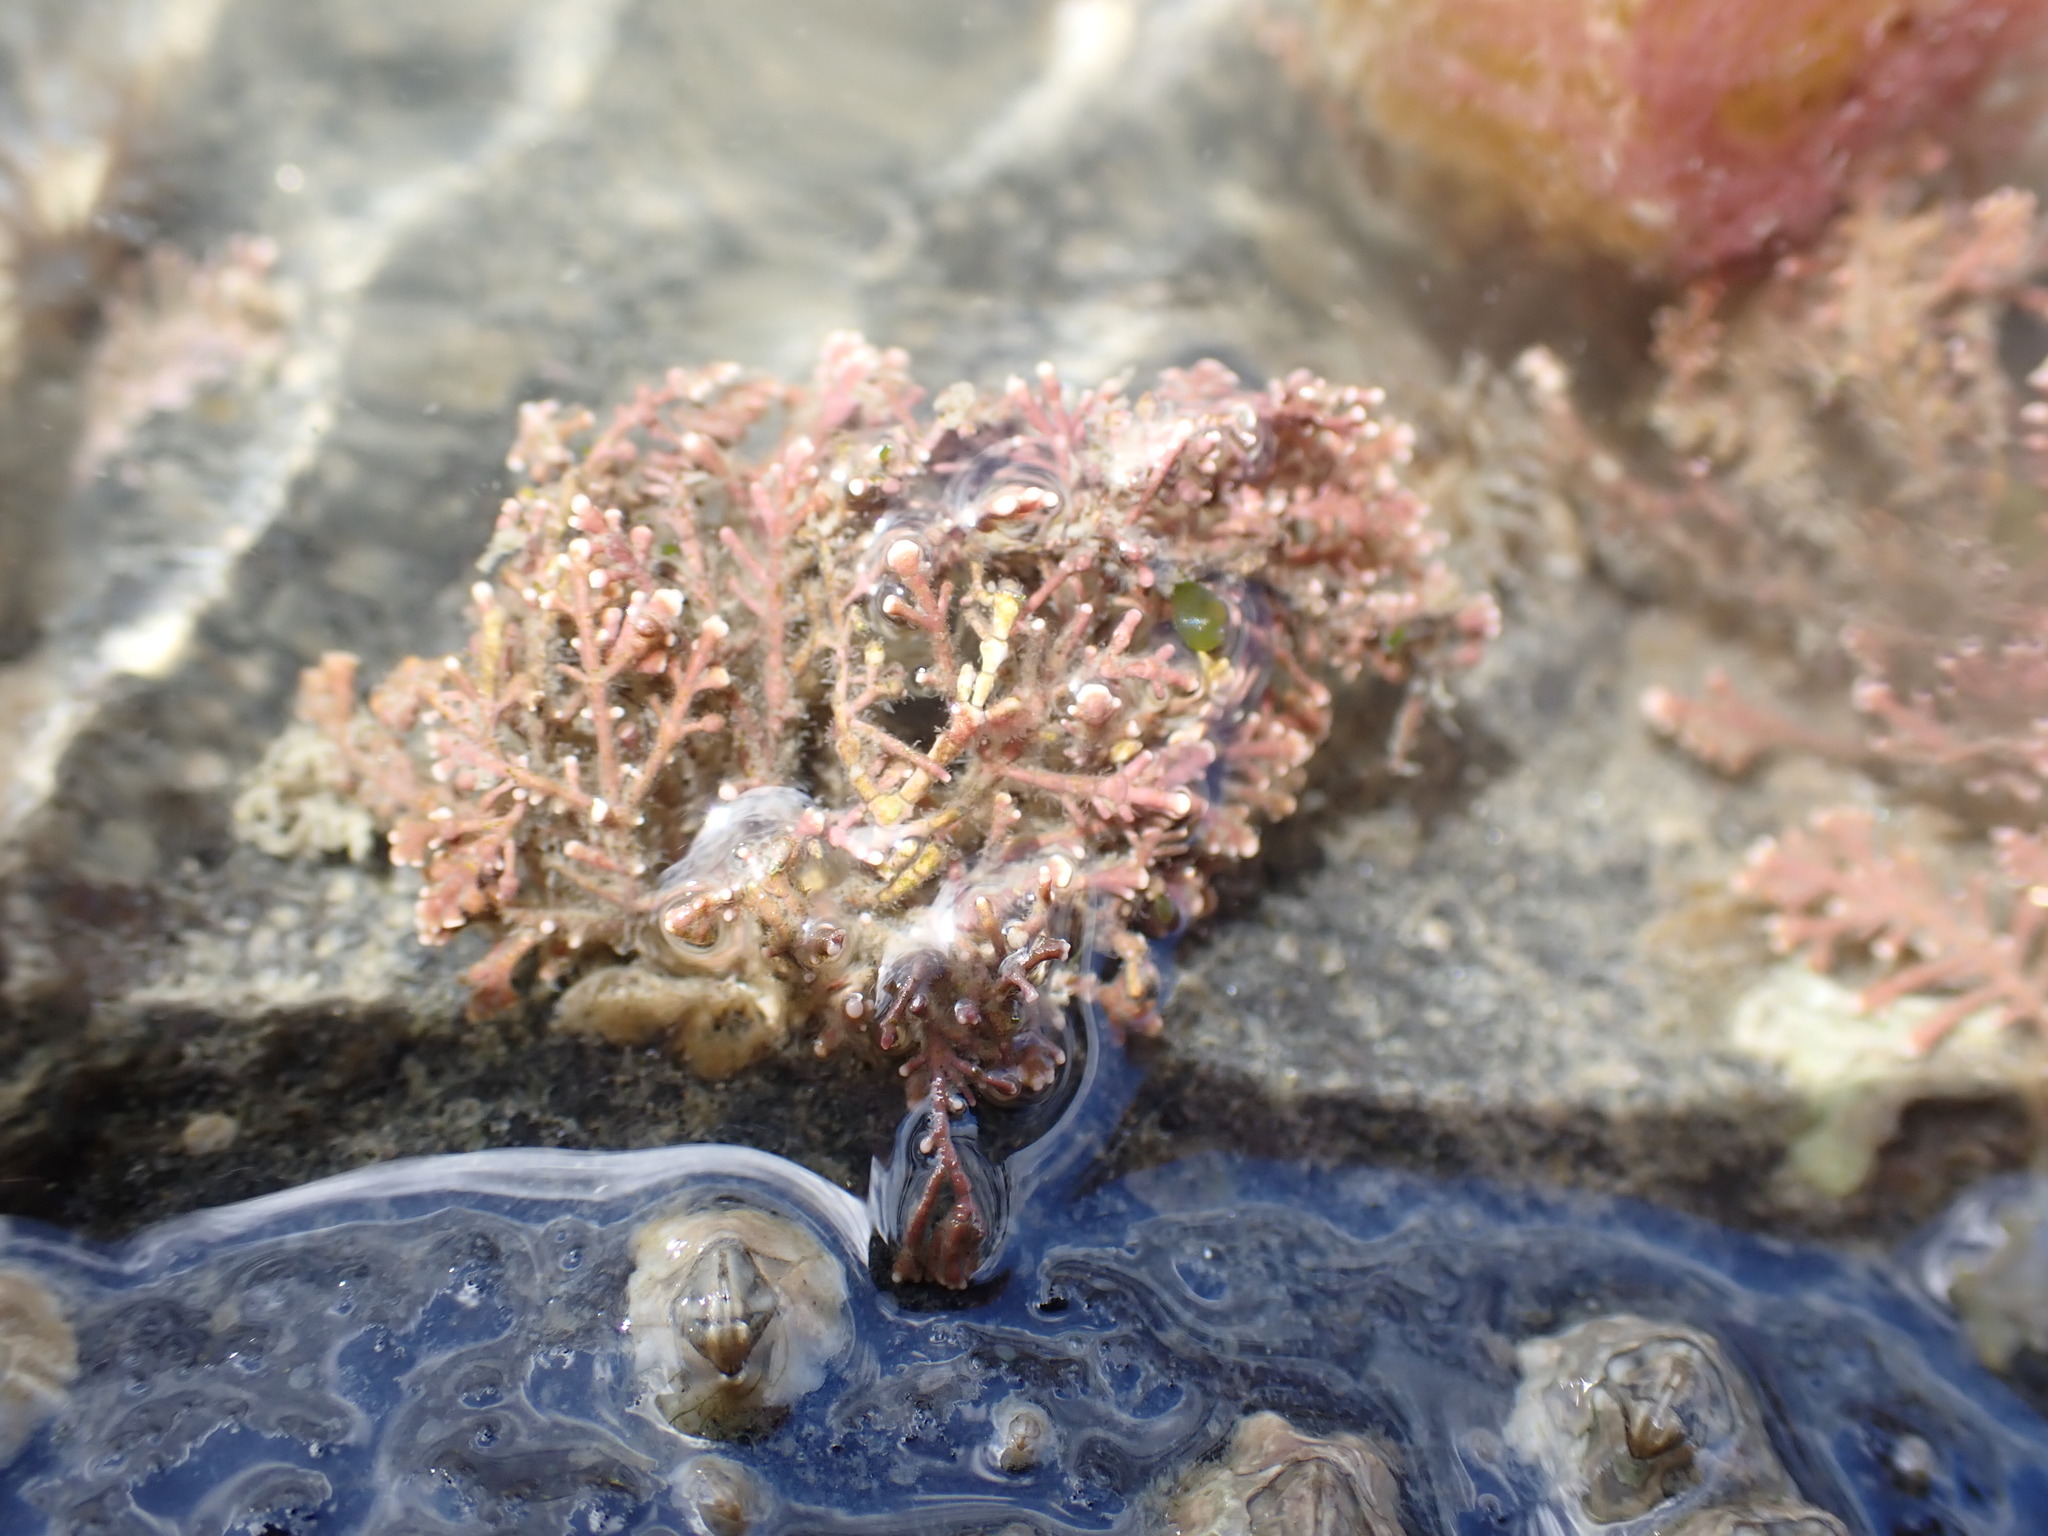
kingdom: Plantae
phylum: Rhodophyta
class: Florideophyceae
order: Corallinales
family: Corallinaceae
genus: Corallina
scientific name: Corallina officinalis
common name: Coral weed
